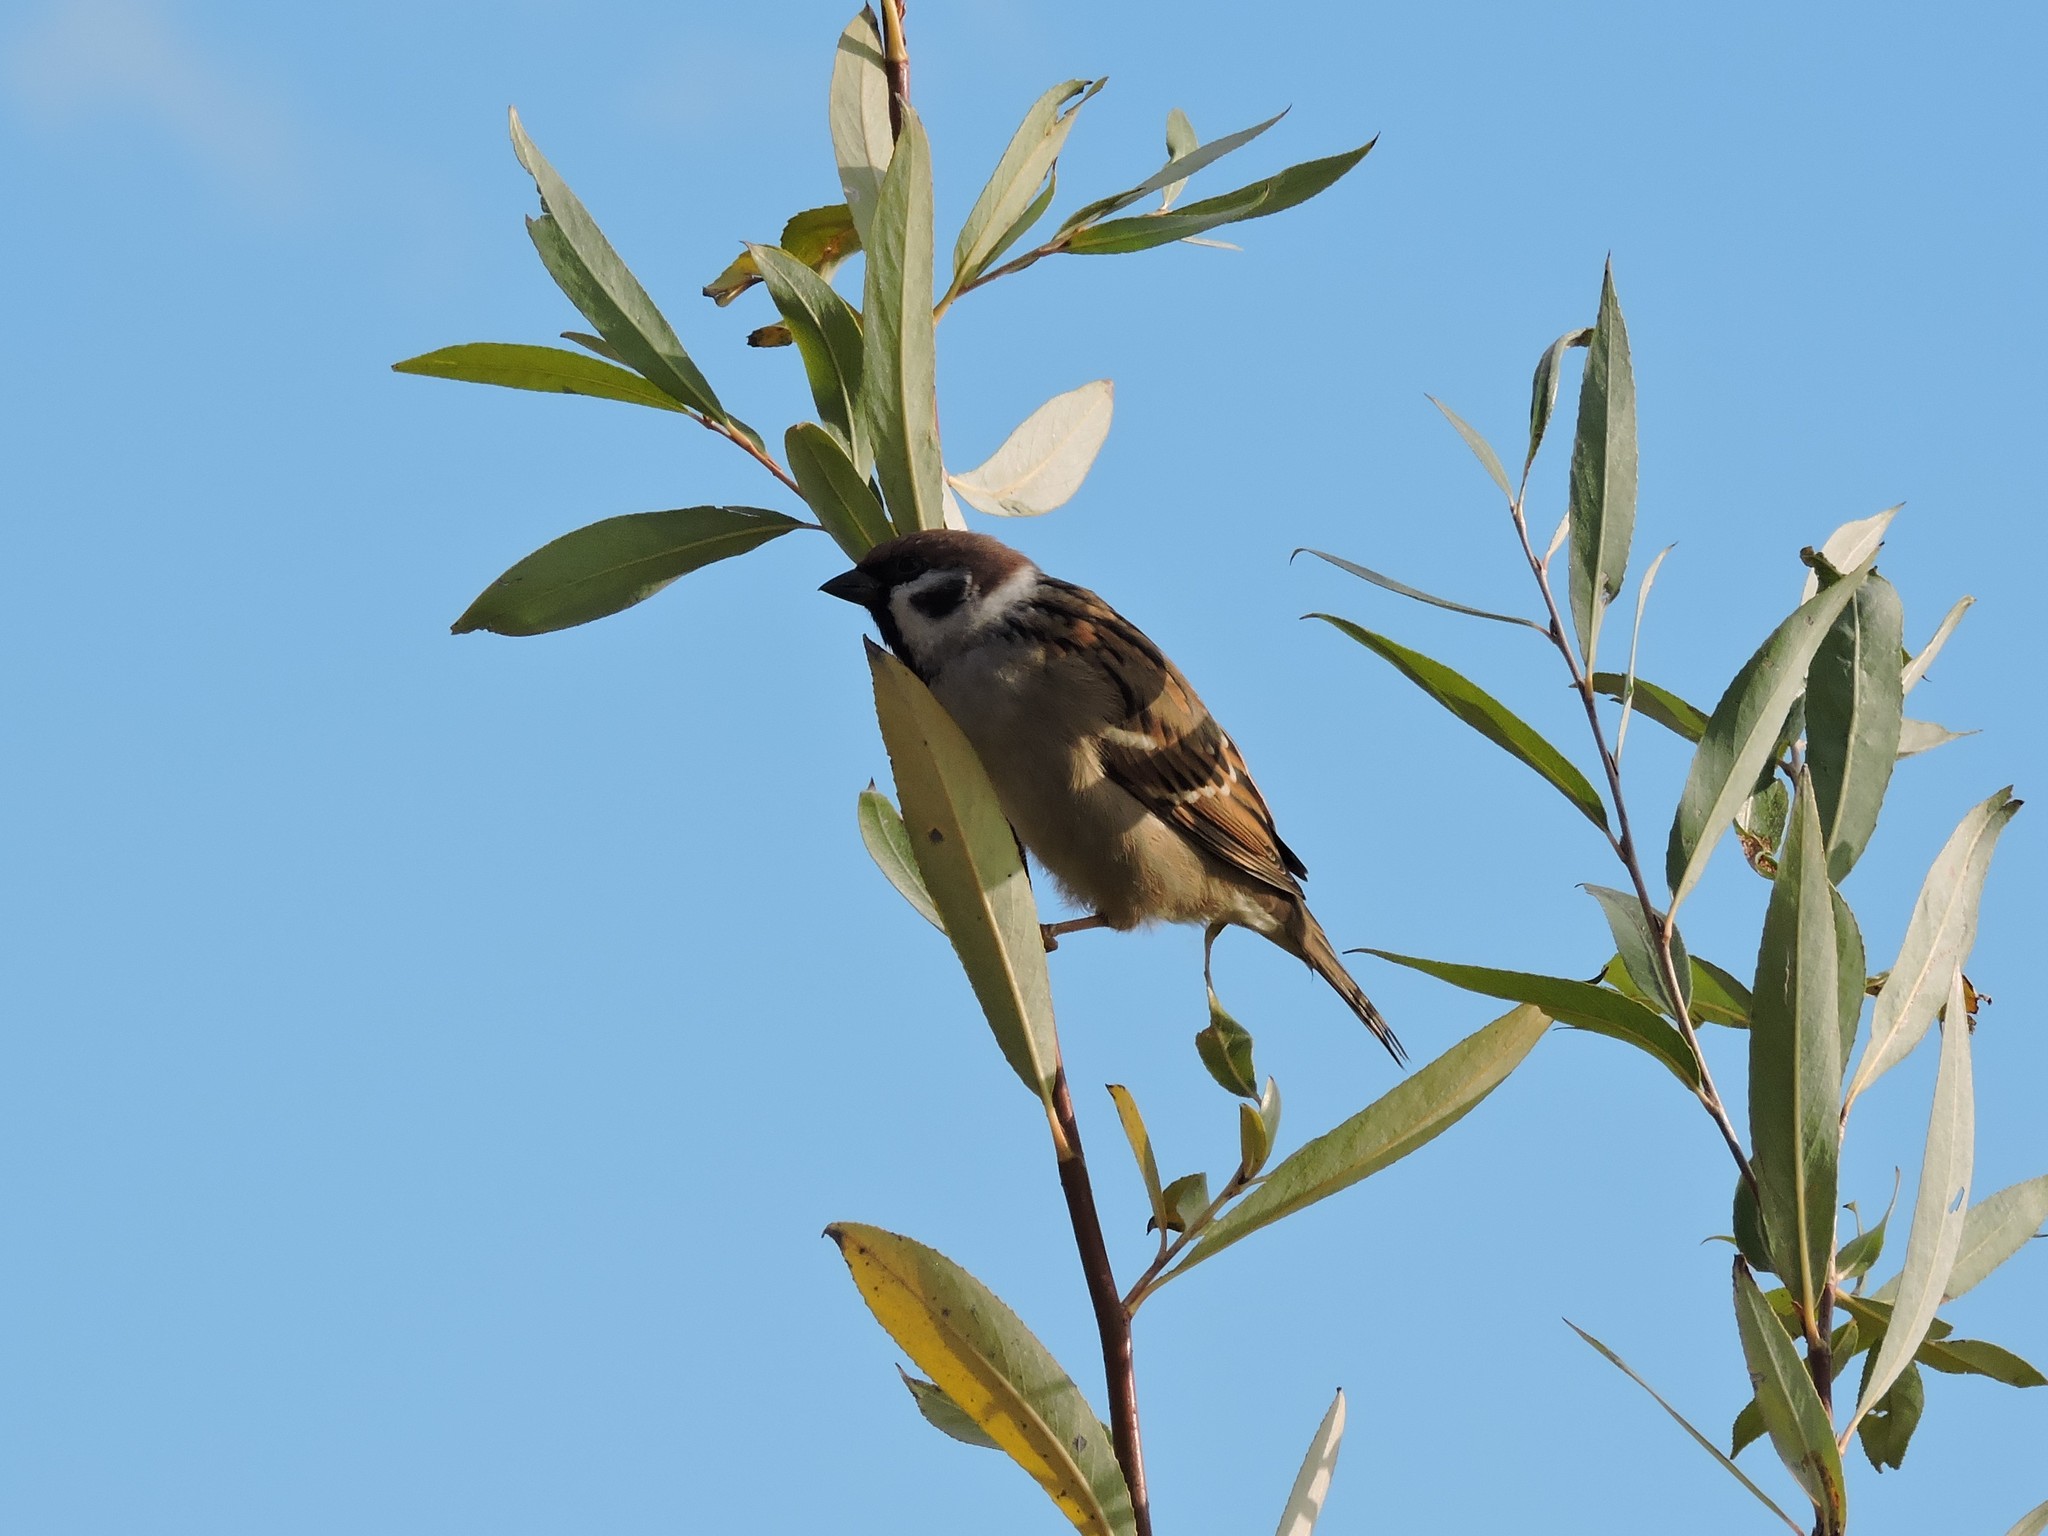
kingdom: Animalia
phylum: Chordata
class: Aves
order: Passeriformes
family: Passeridae
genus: Passer
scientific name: Passer montanus
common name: Eurasian tree sparrow
